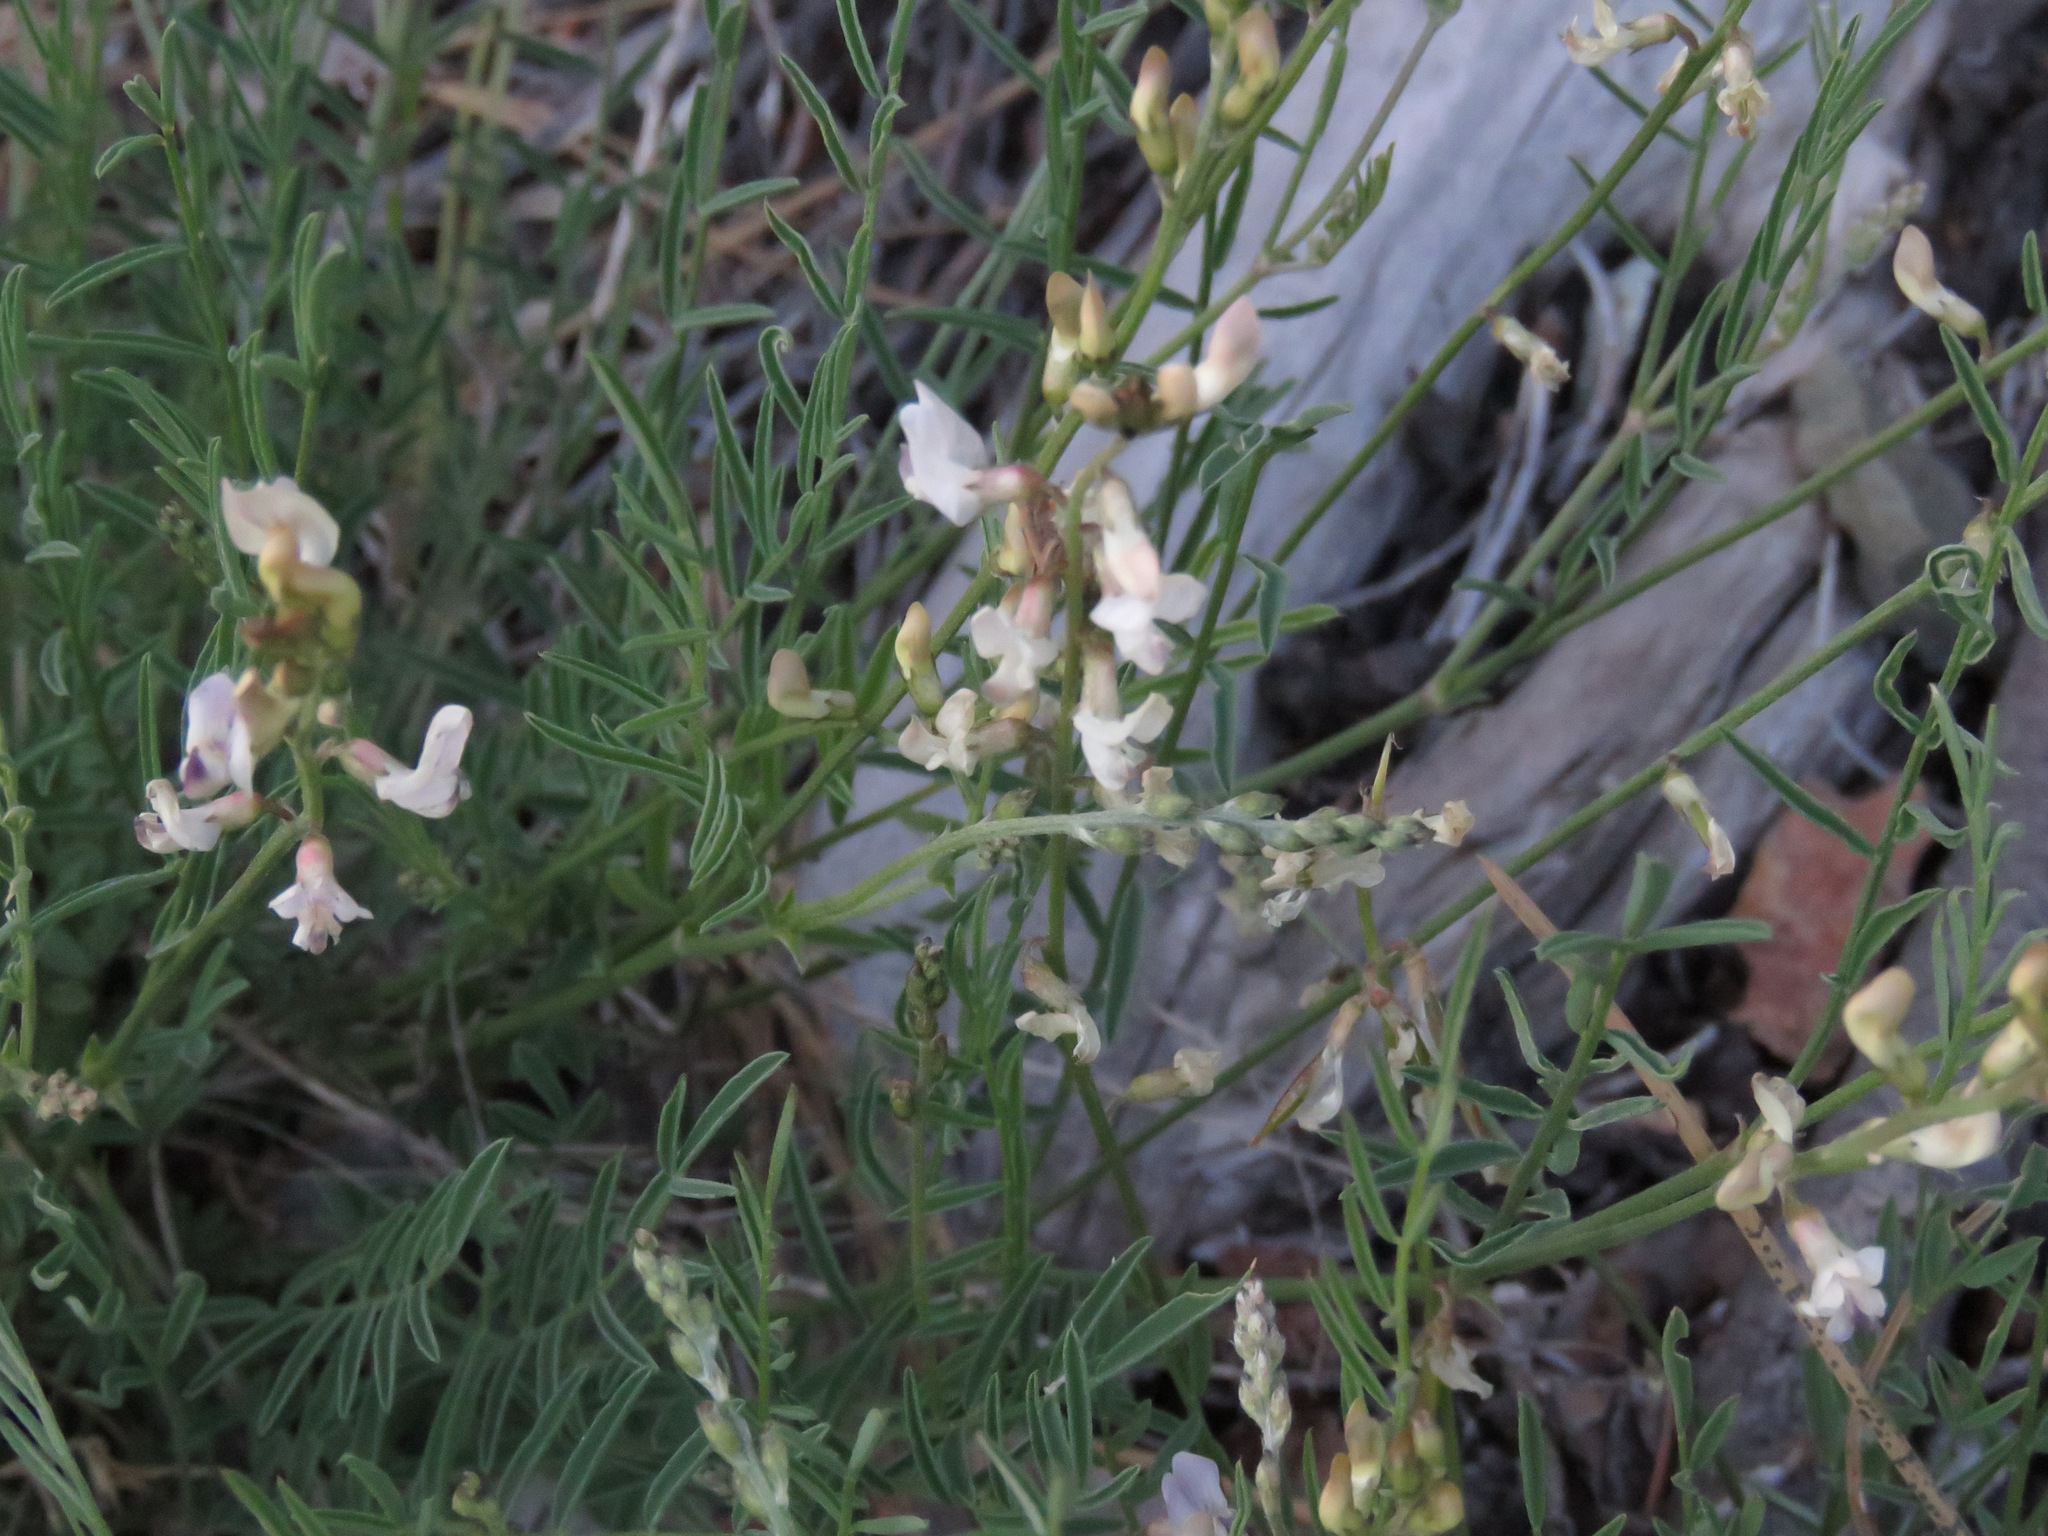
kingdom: Plantae
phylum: Tracheophyta
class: Magnoliopsida
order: Fabales
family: Fabaceae
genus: Astragalus
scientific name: Astragalus miser
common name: Timber milkvetch
